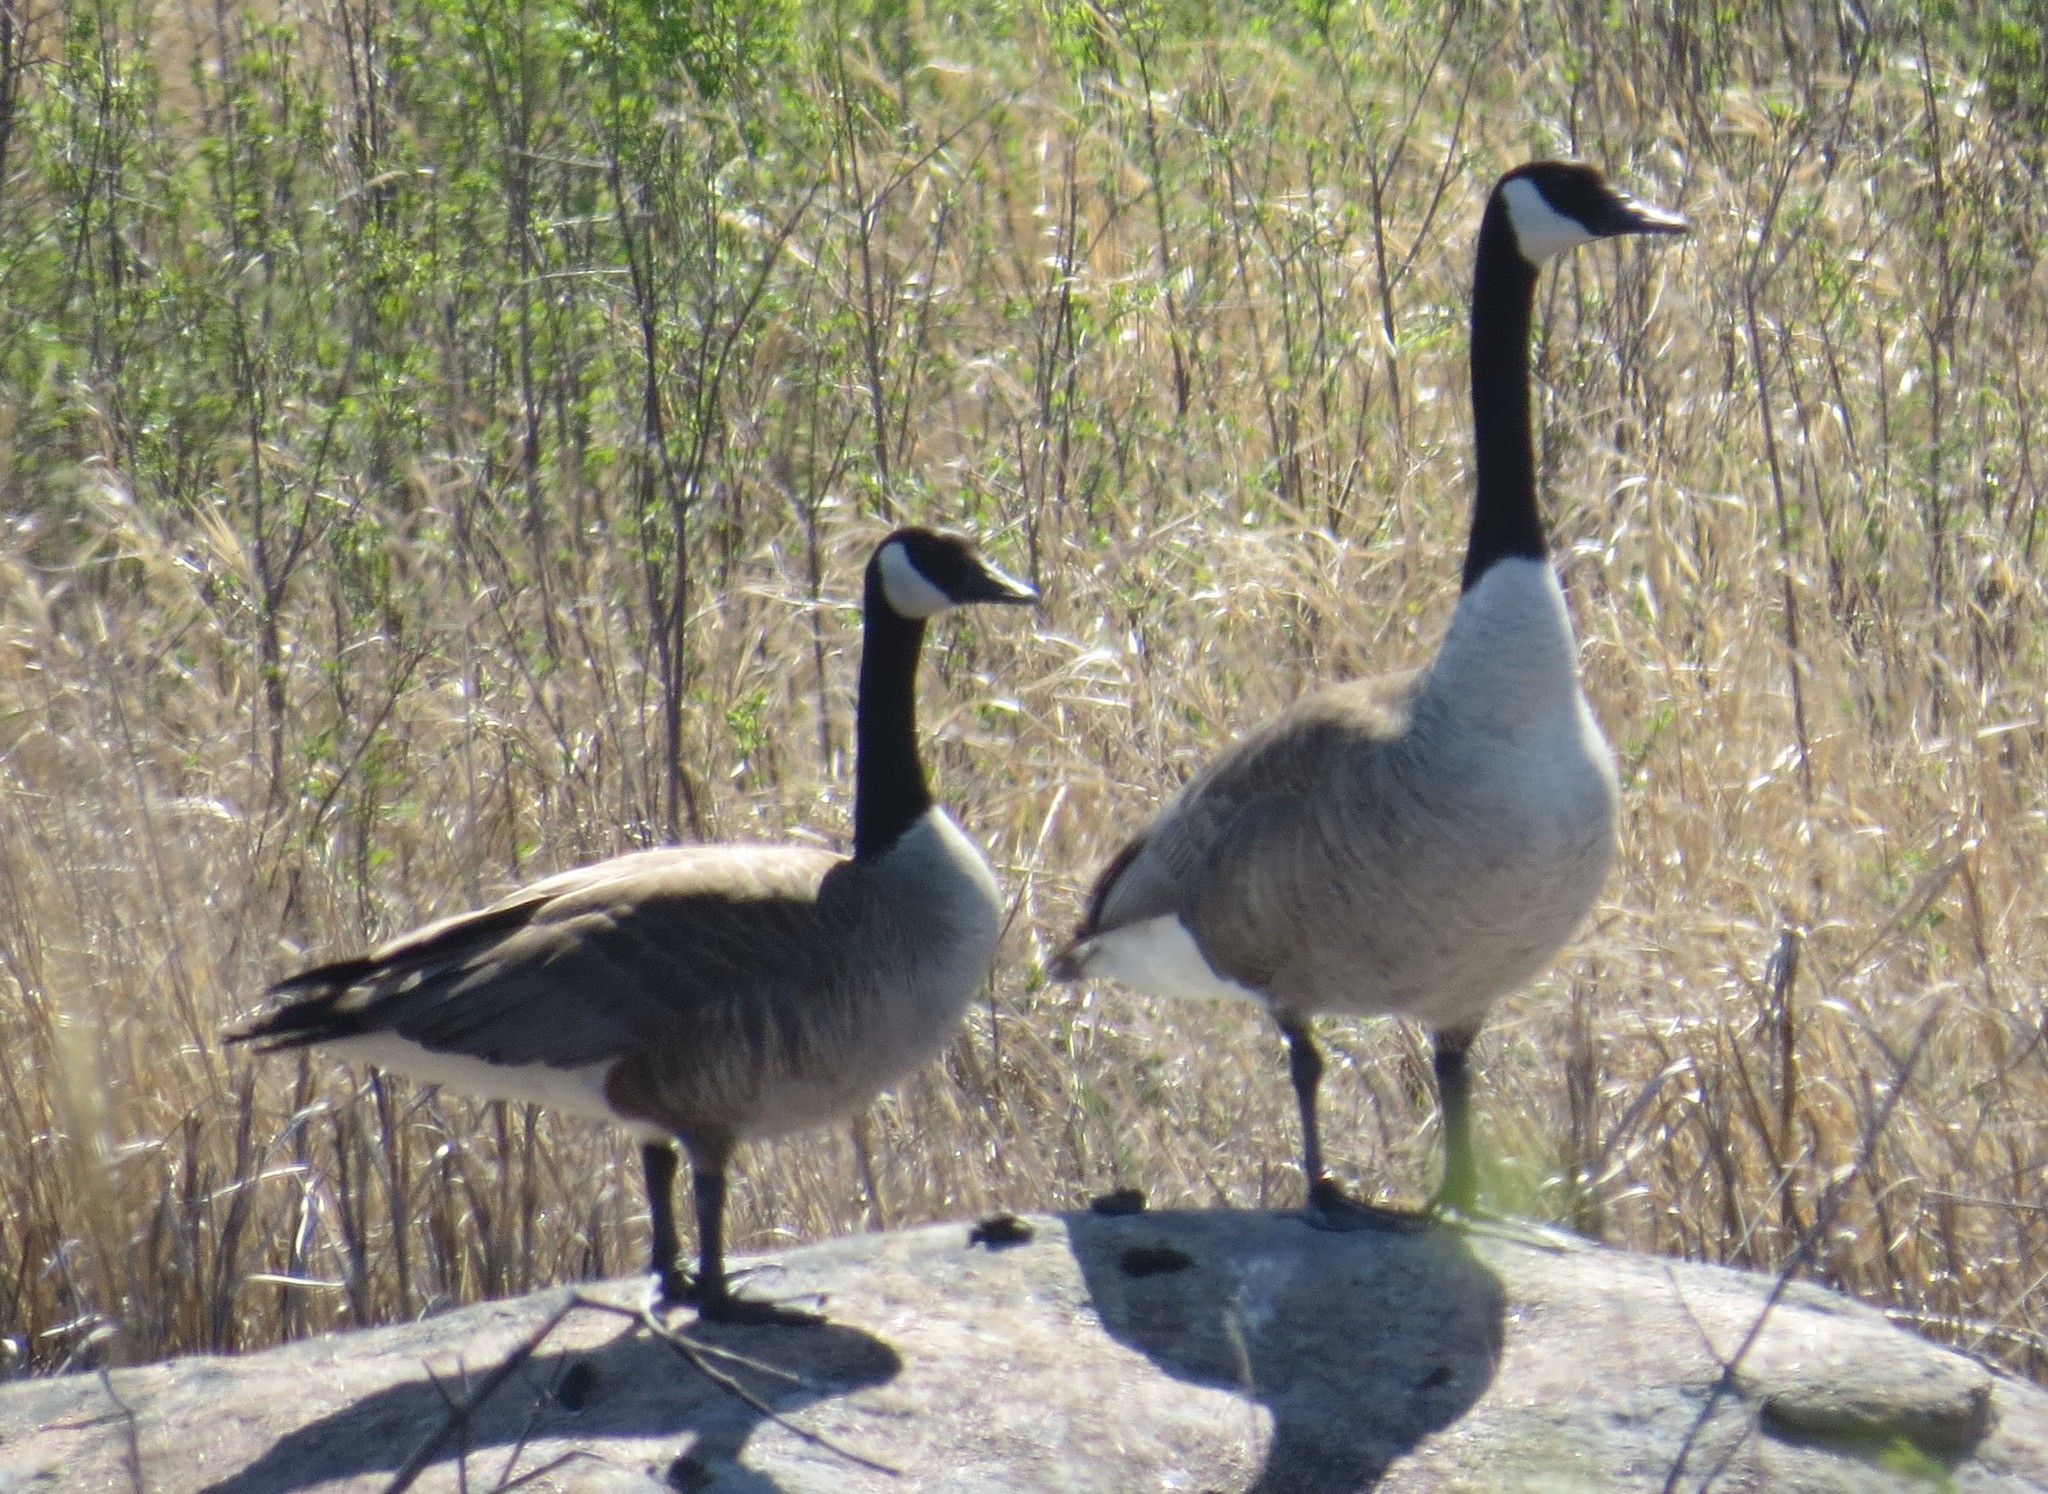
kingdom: Animalia
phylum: Chordata
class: Aves
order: Anseriformes
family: Anatidae
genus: Branta
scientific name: Branta canadensis
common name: Canada goose
